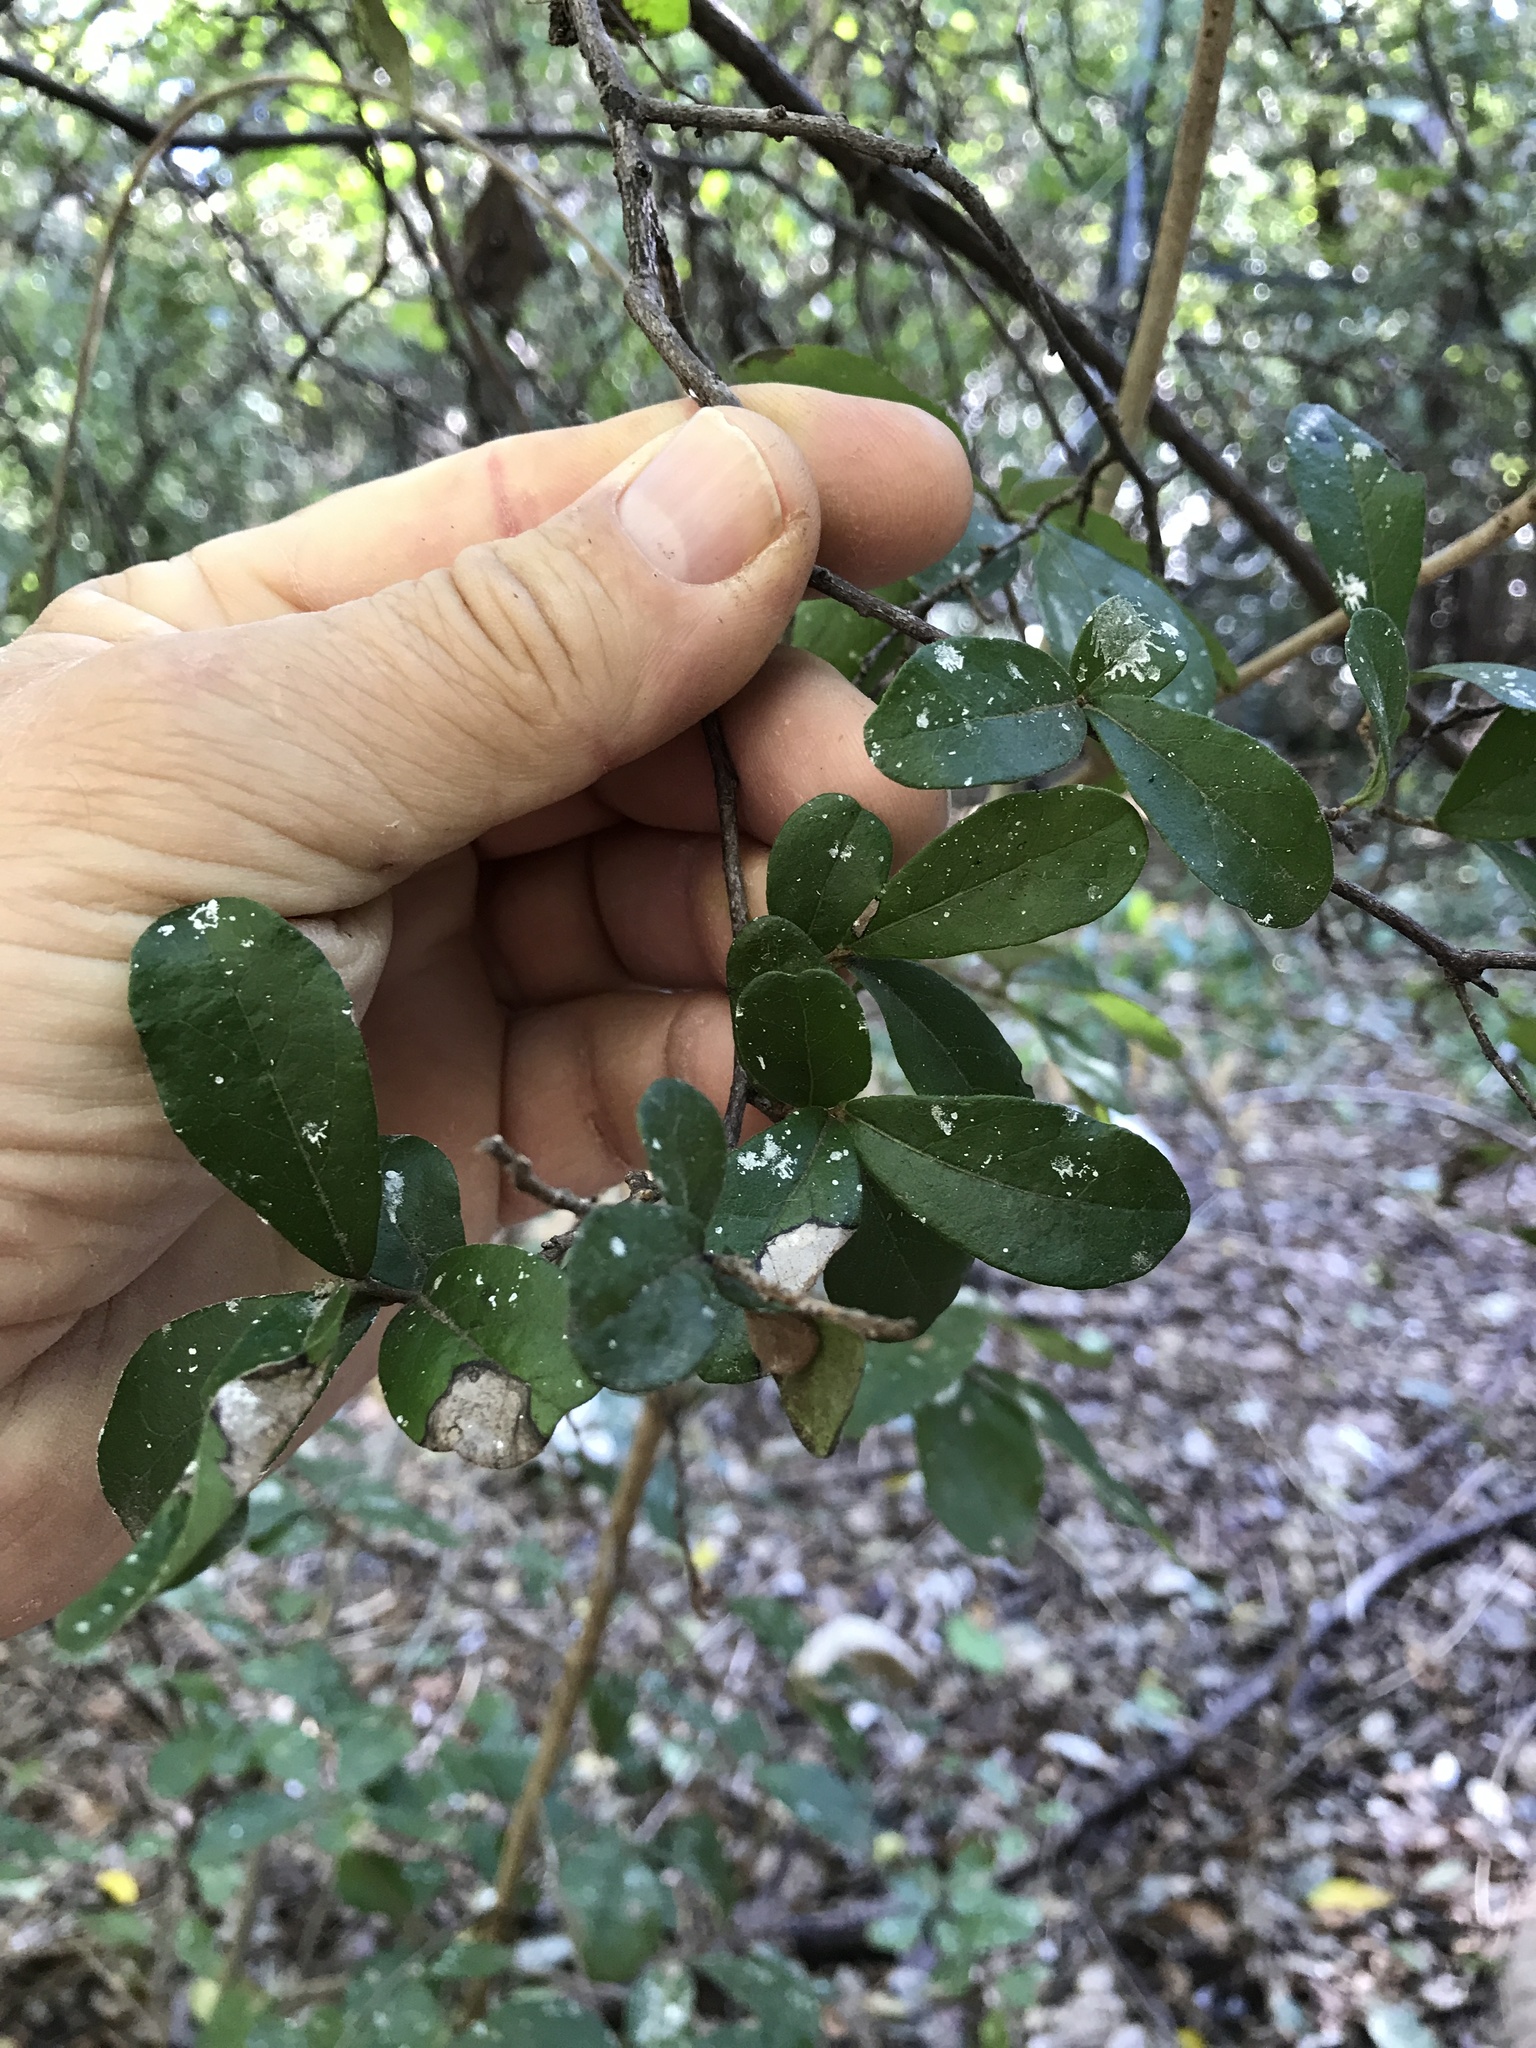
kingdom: Plantae
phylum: Tracheophyta
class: Magnoliopsida
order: Ericales
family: Ebenaceae
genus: Diospyros
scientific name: Diospyros texana
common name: Texas persimmon
